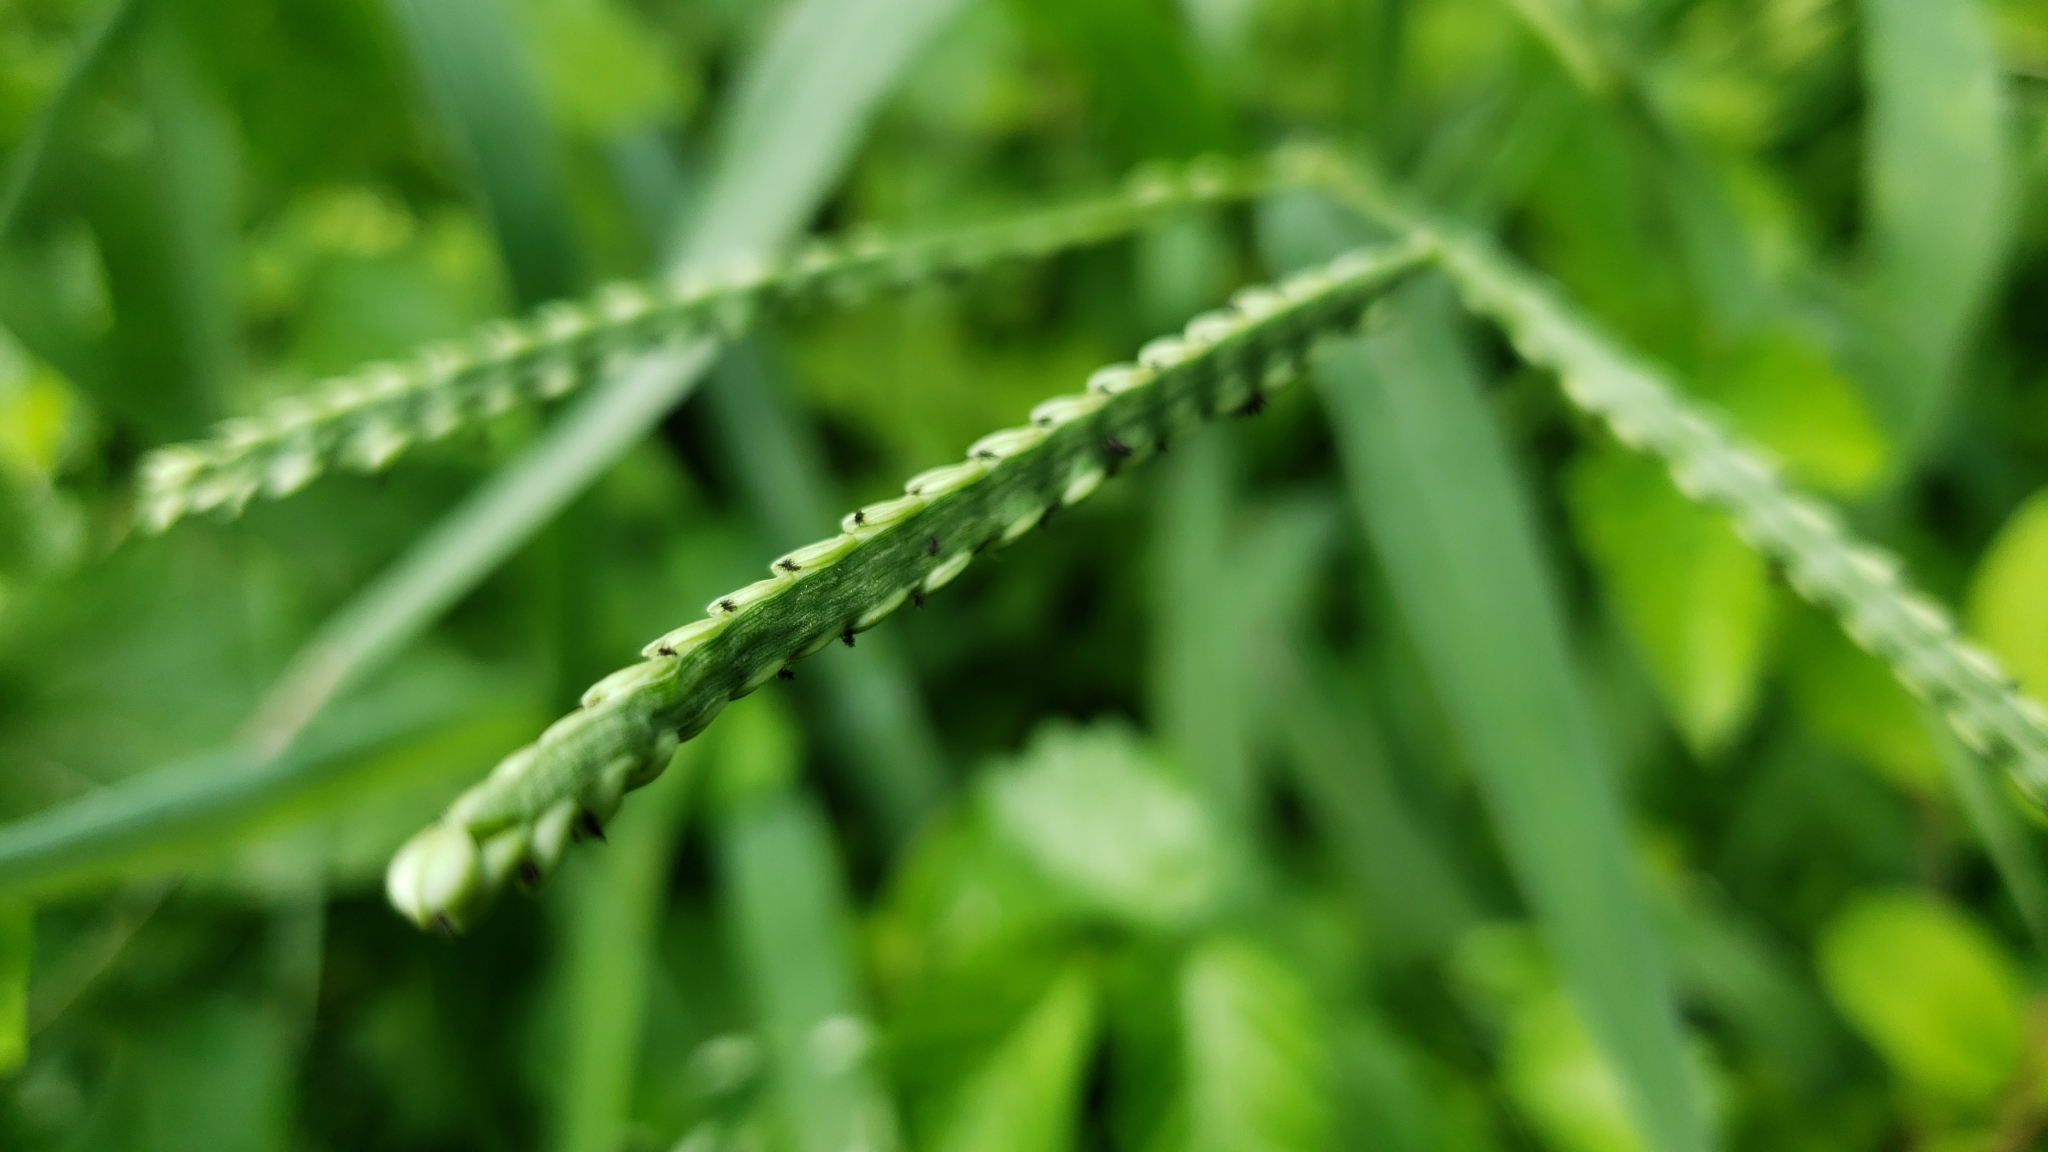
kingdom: Plantae
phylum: Tracheophyta
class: Liliopsida
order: Poales
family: Poaceae
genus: Paspalum
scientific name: Paspalum pubiflorum
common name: Hairy-seed paspalum
